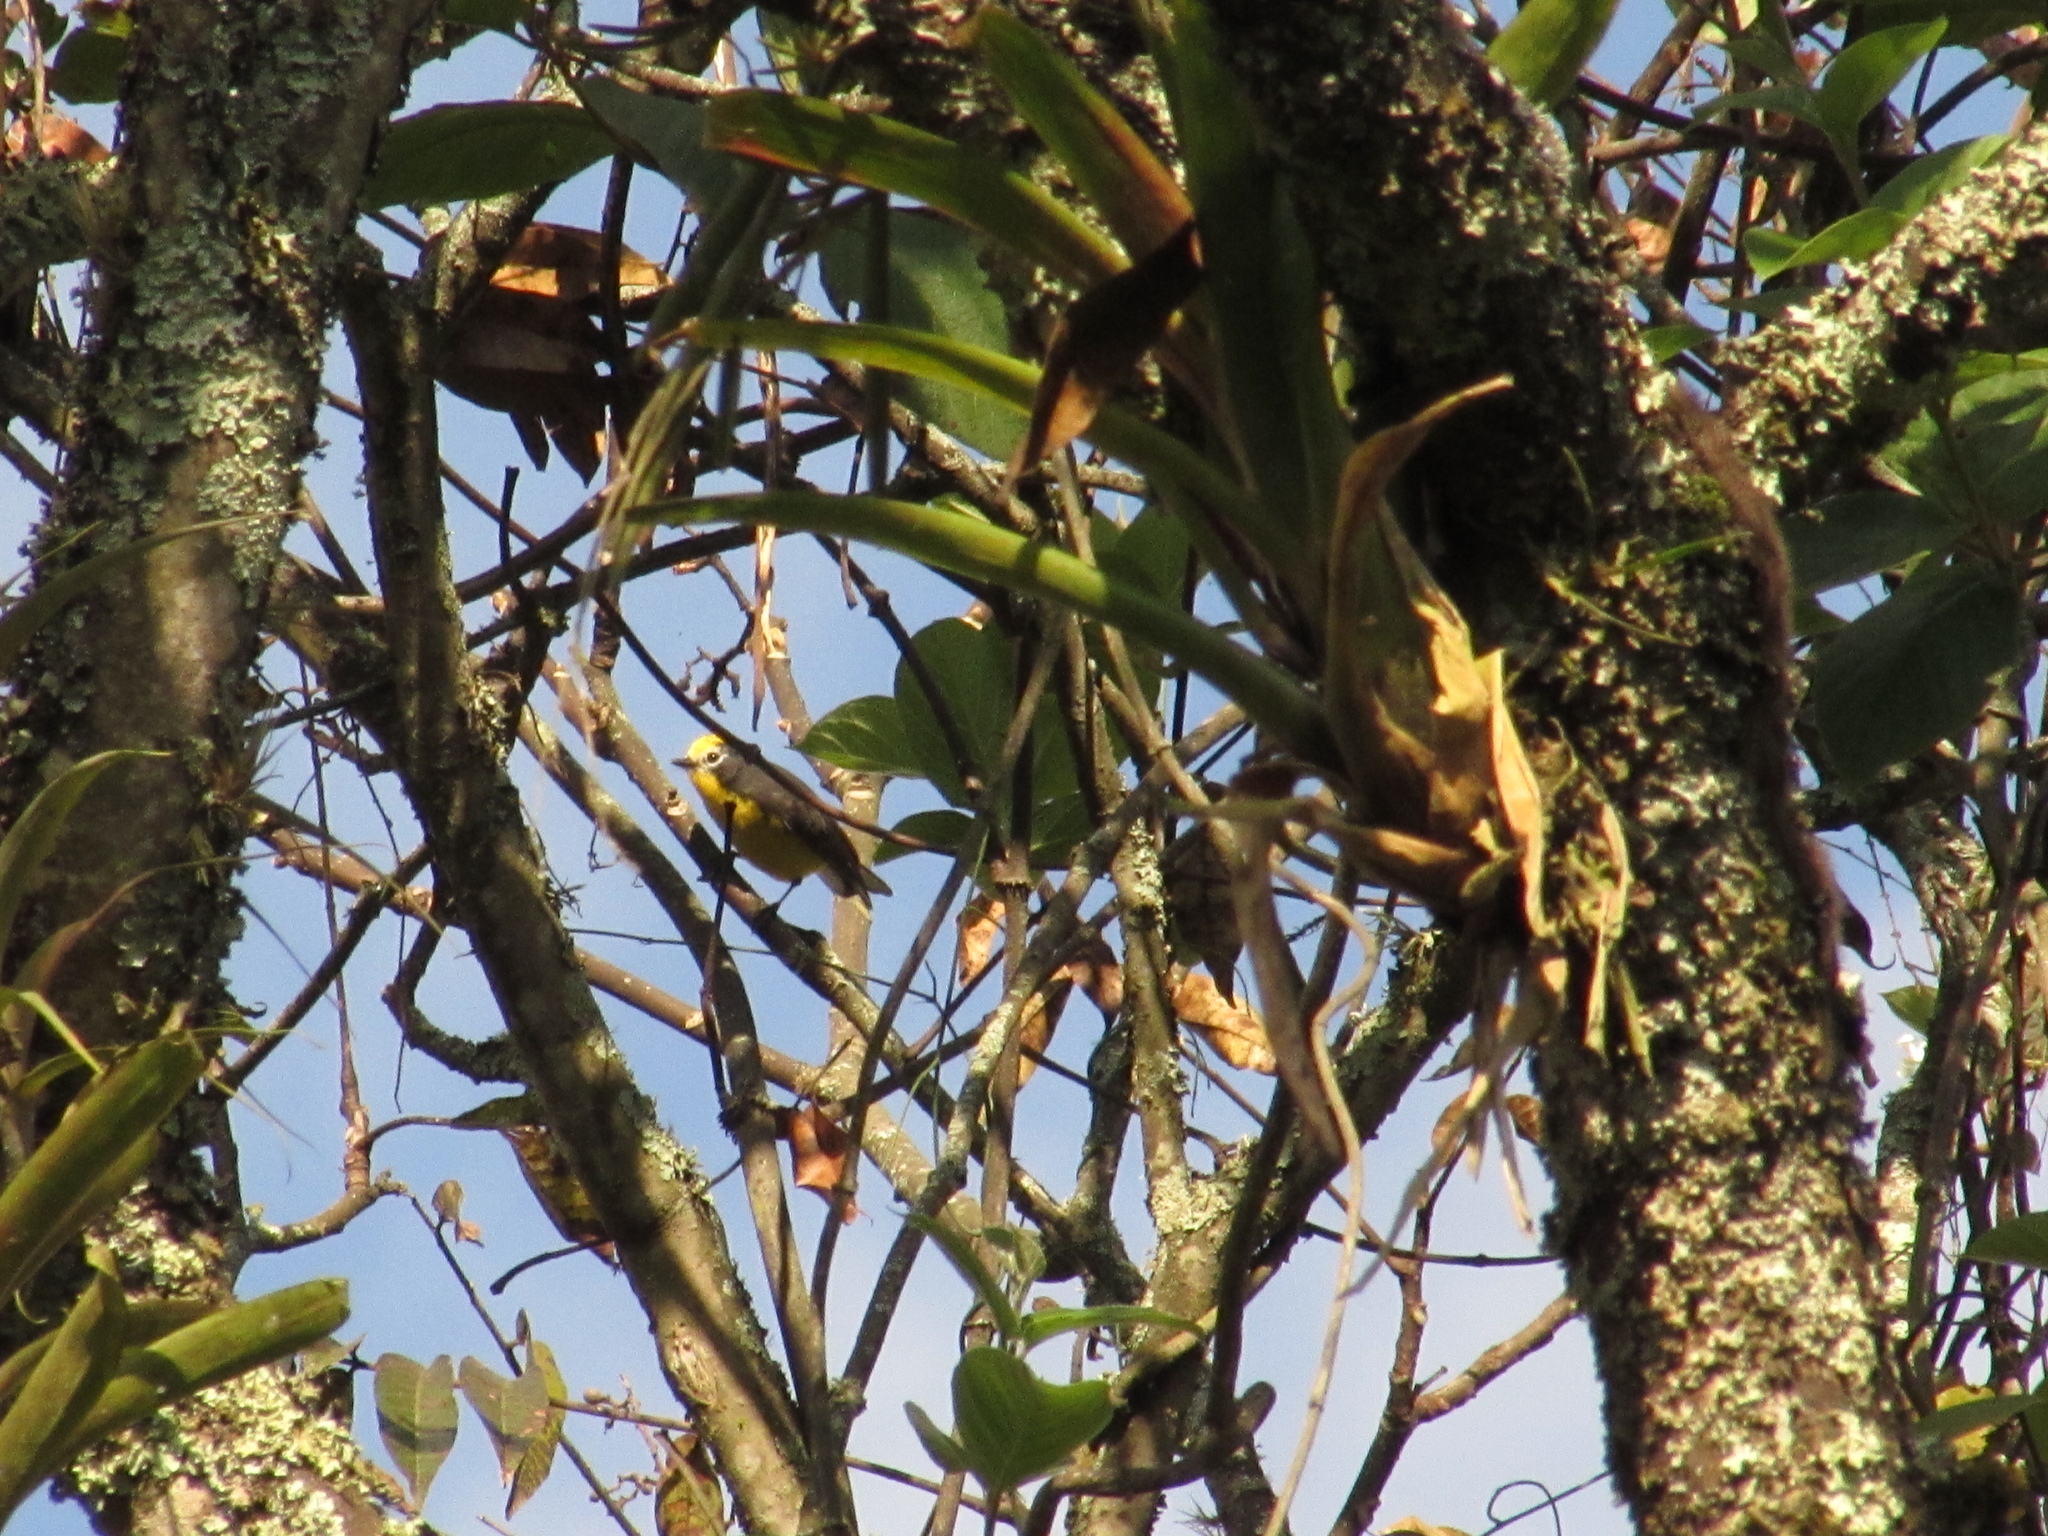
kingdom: Animalia
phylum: Chordata
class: Aves
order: Passeriformes
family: Parulidae
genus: Myioborus
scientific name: Myioborus ornatus
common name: Golden-fronted whitestart
